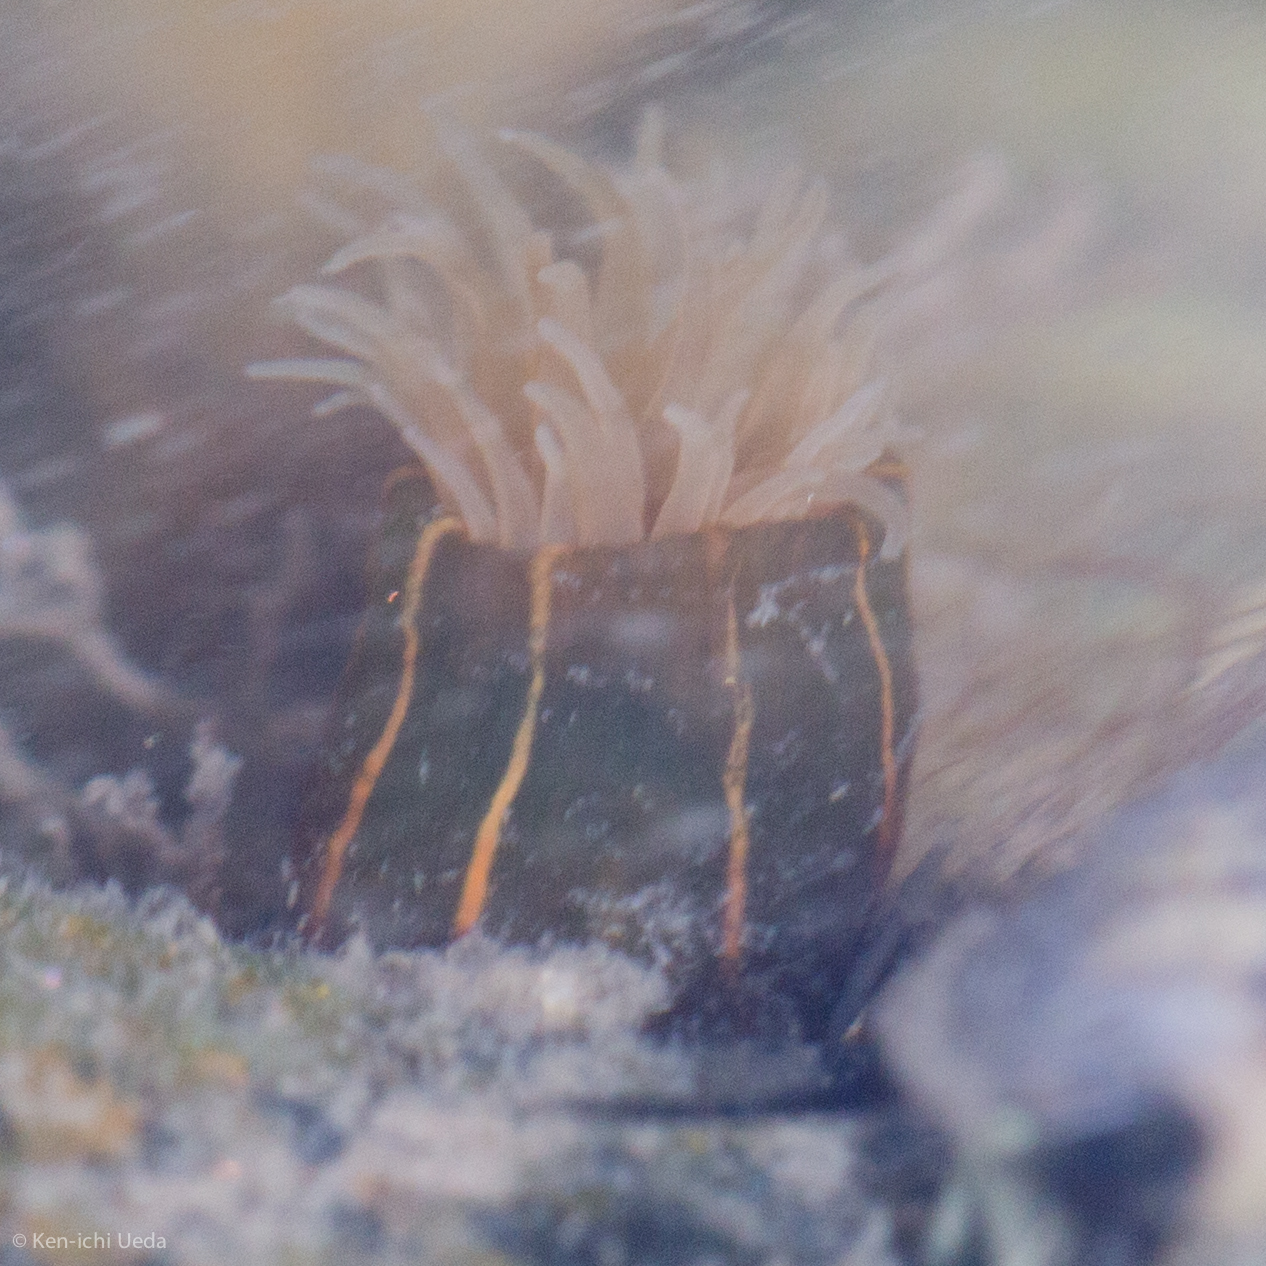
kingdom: Animalia
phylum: Cnidaria
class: Anthozoa
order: Actiniaria
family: Diadumenidae
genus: Diadumene
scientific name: Diadumene lineata
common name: Orange-striped anemone
